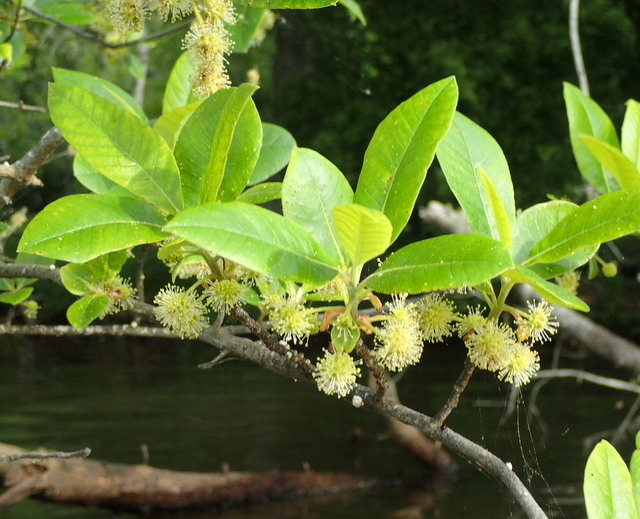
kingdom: Plantae
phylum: Tracheophyta
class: Magnoliopsida
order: Cornales
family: Nyssaceae
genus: Nyssa
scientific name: Nyssa ogeche
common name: Ogeechee tupelo
